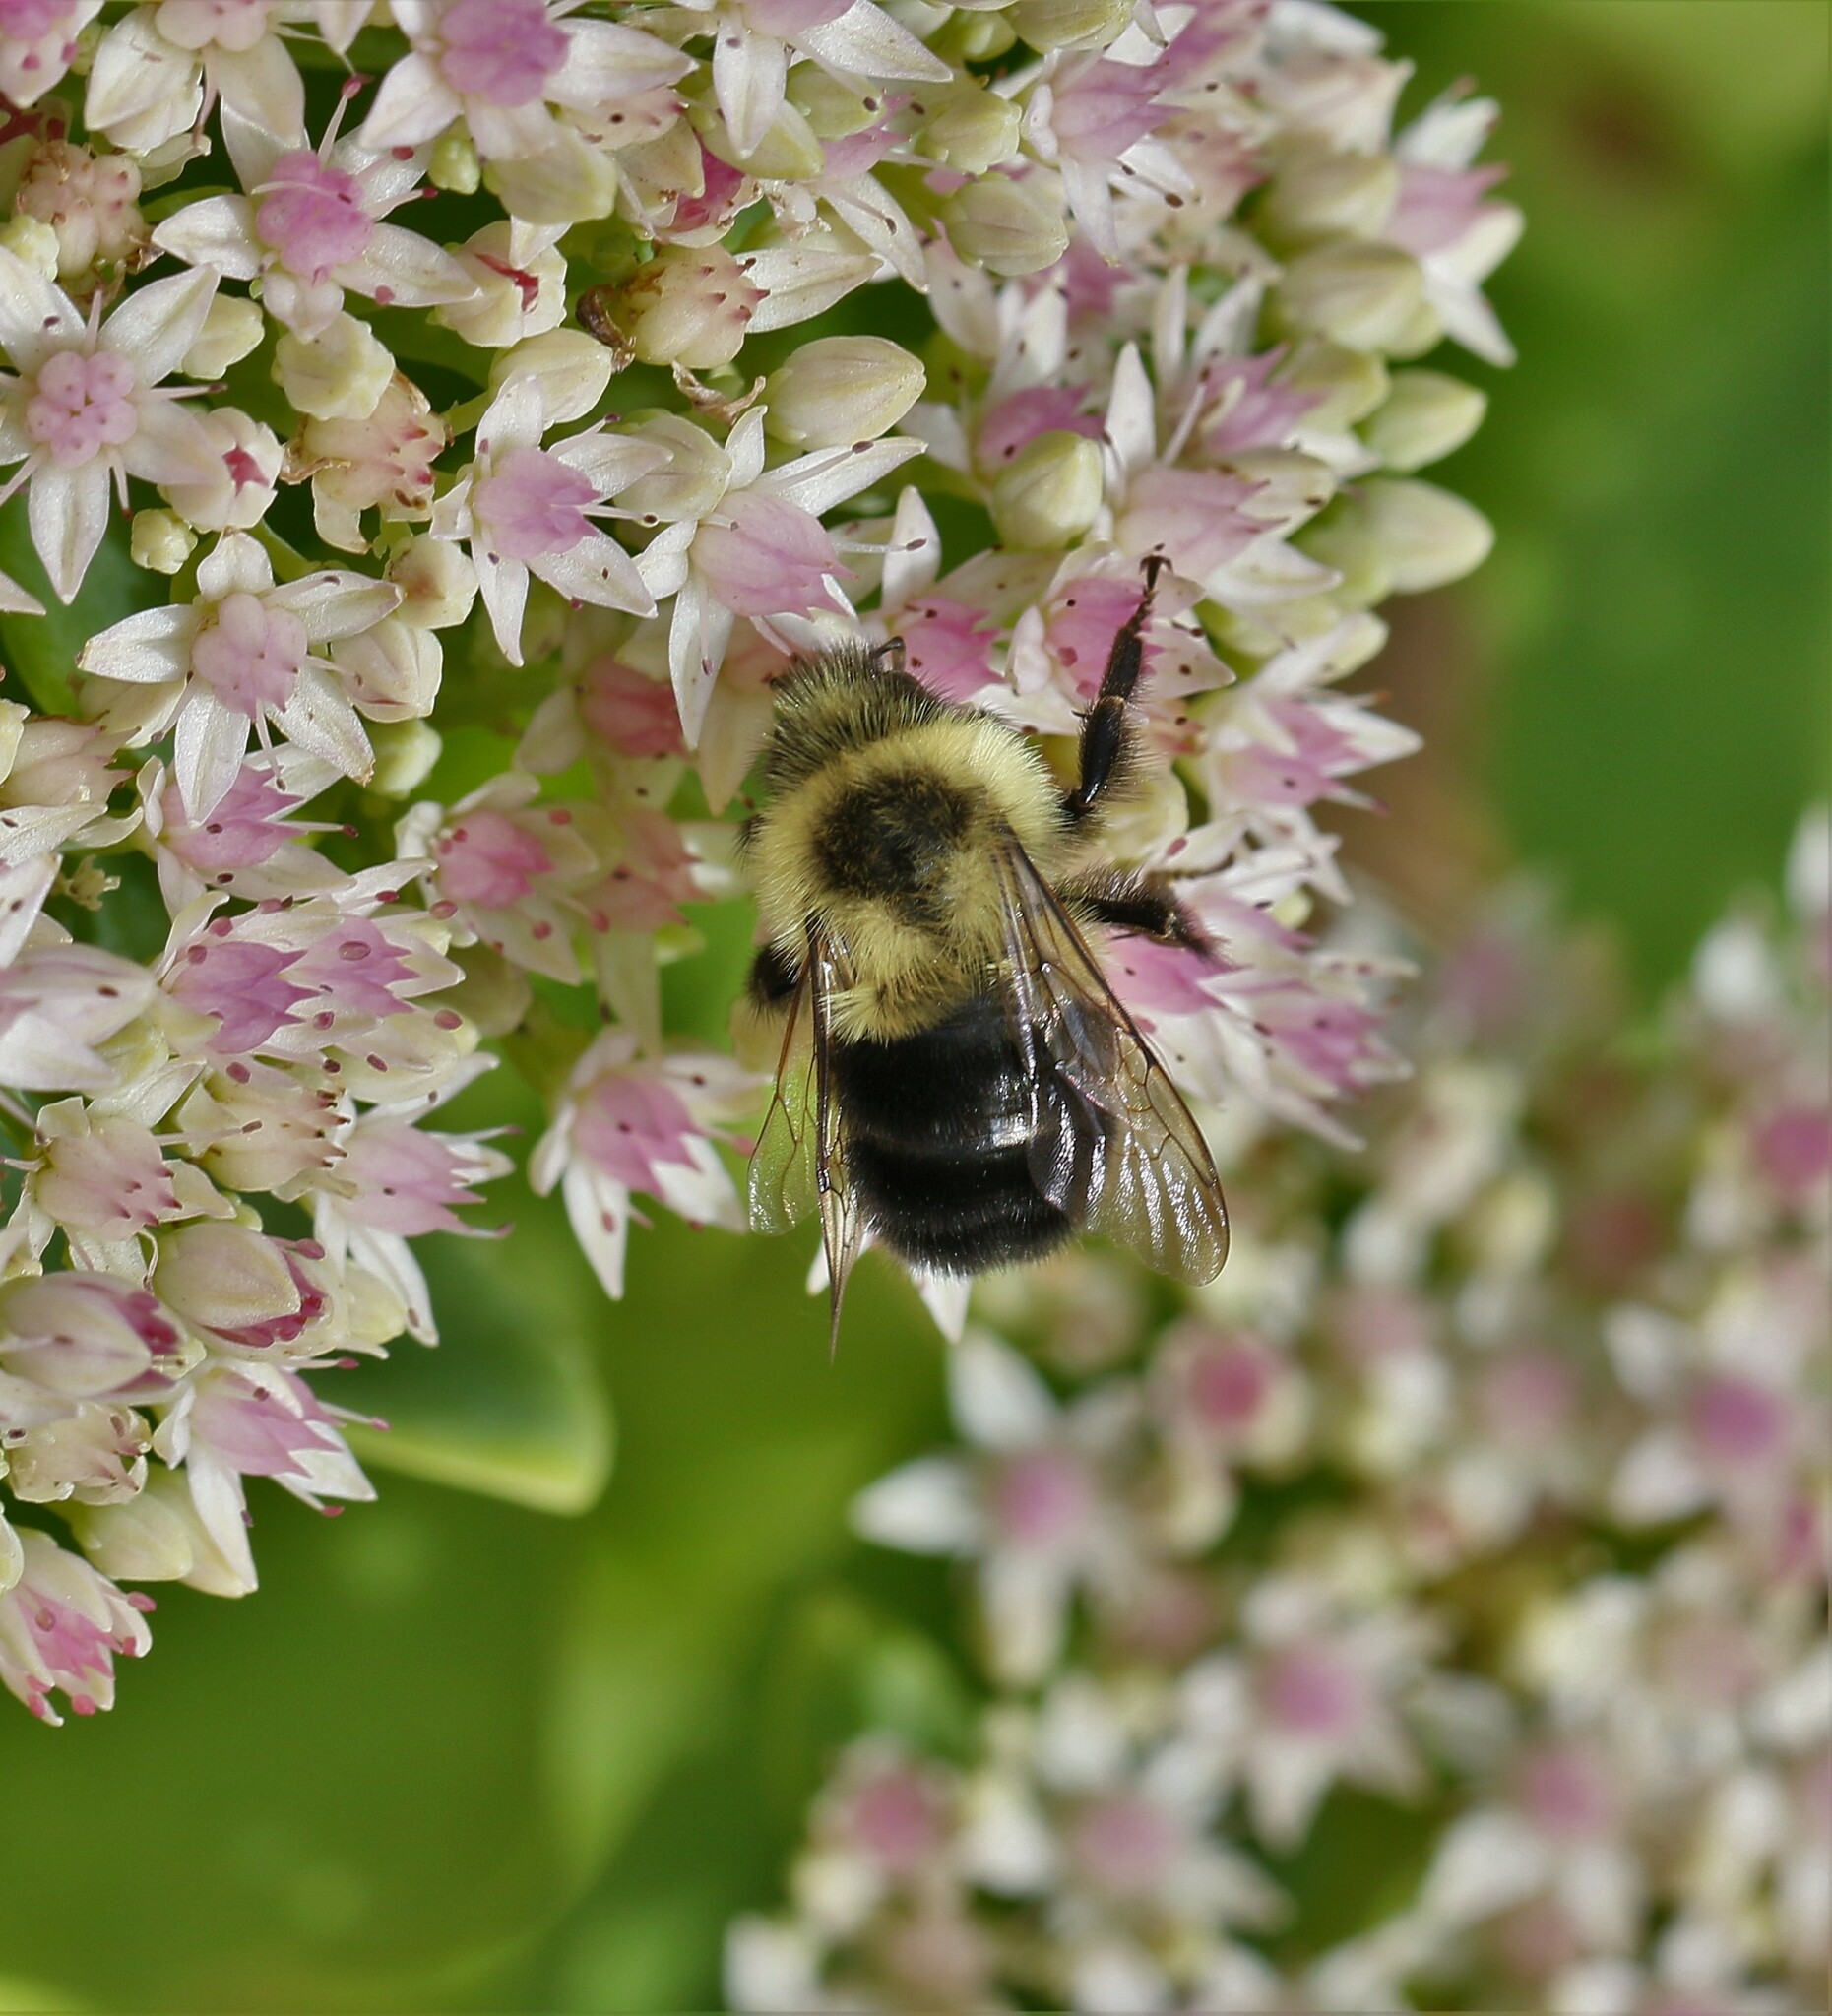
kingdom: Animalia
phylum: Arthropoda
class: Insecta
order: Hymenoptera
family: Apidae
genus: Bombus
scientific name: Bombus impatiens
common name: Common eastern bumble bee
